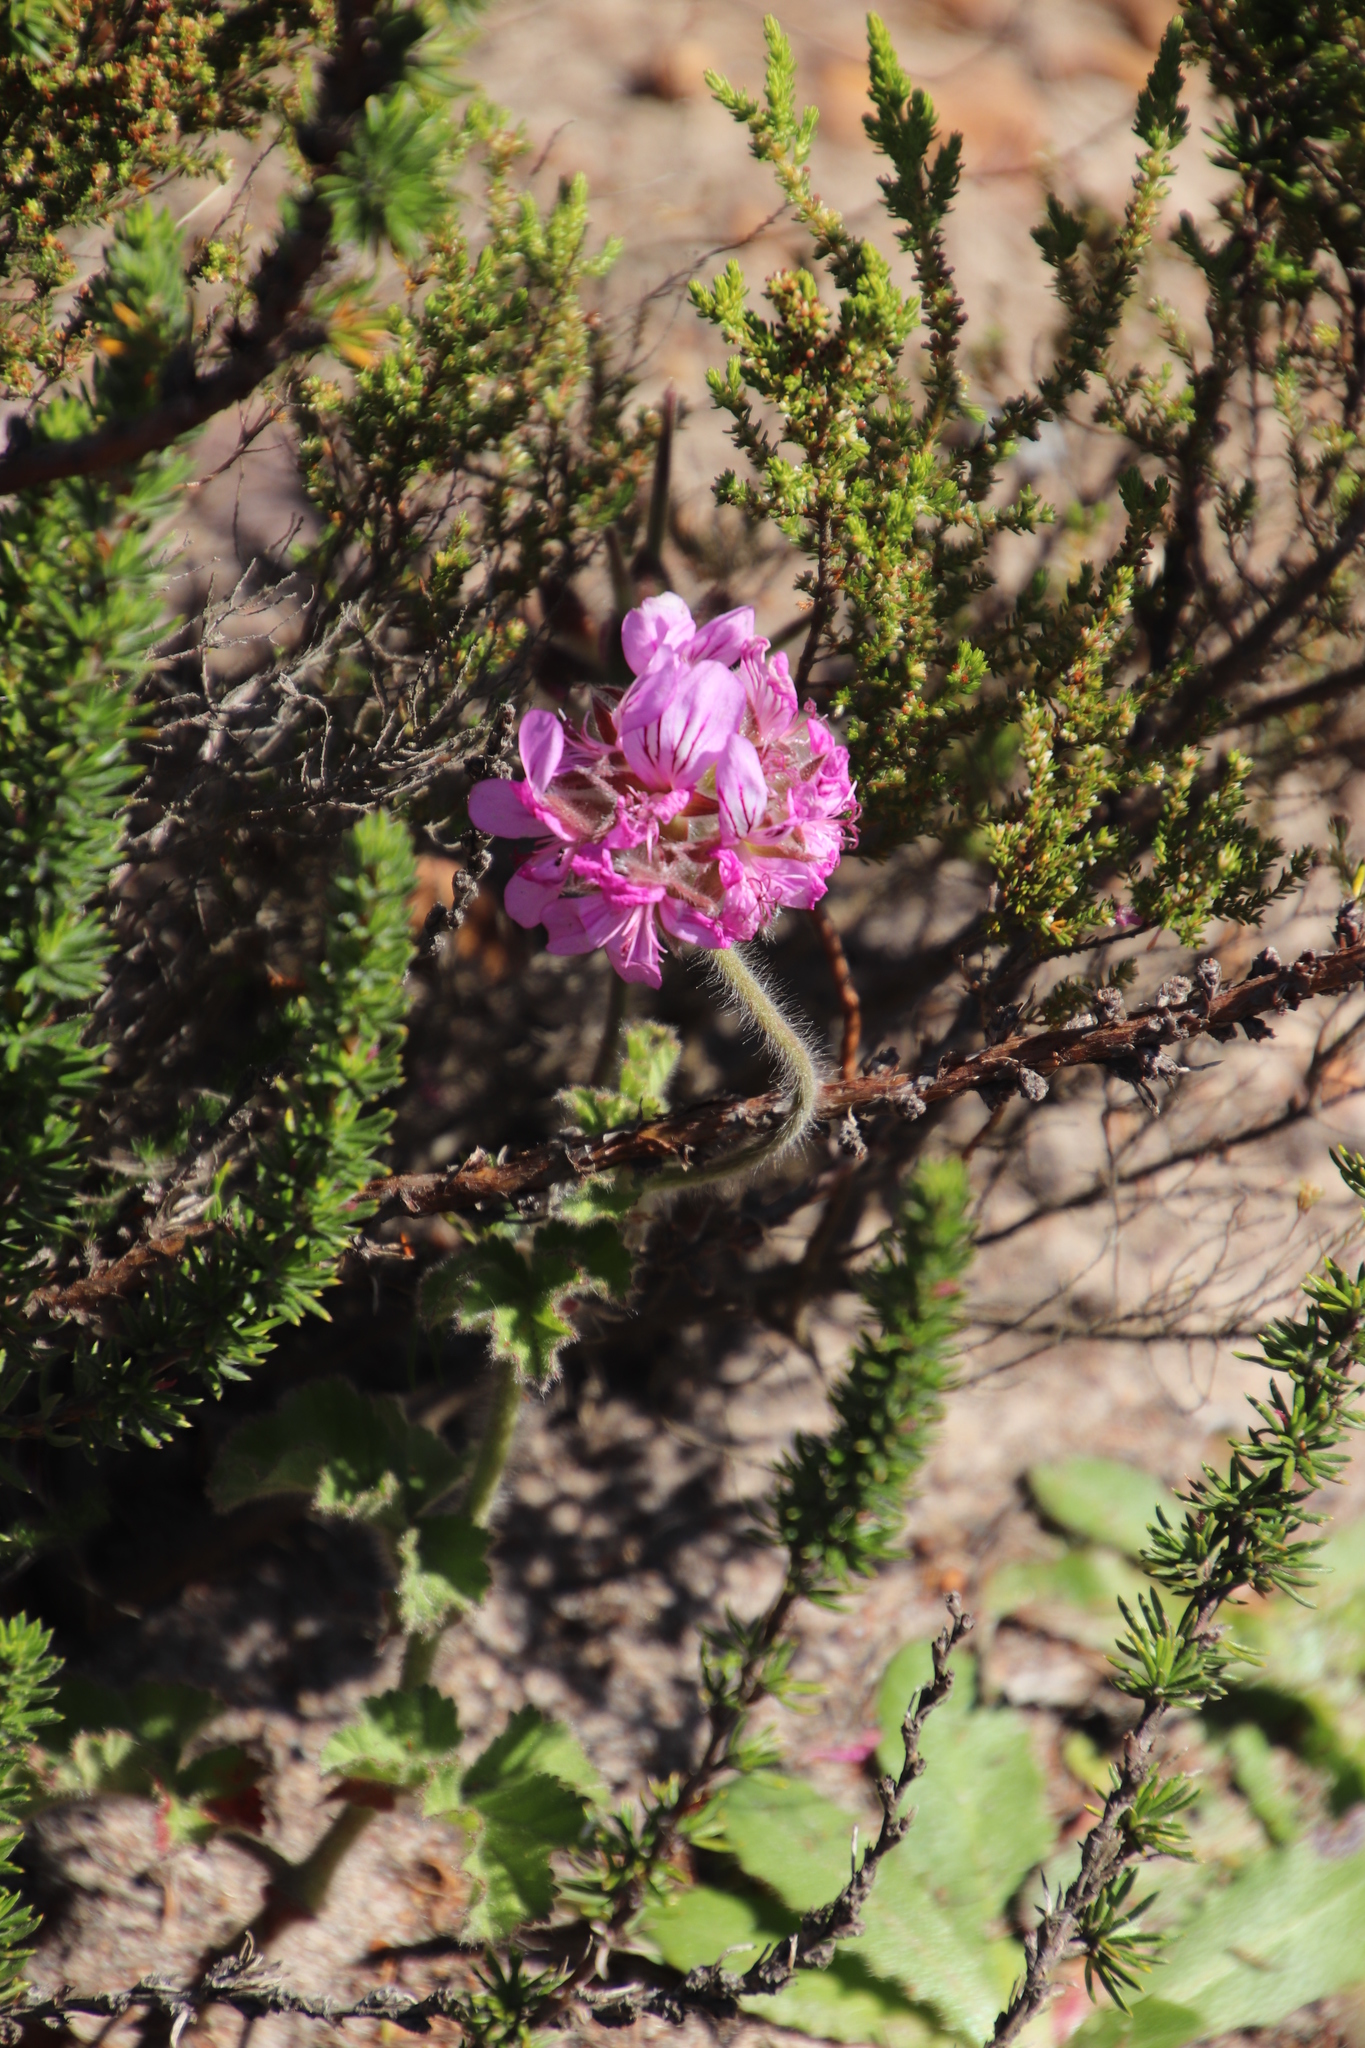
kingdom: Plantae
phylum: Tracheophyta
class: Magnoliopsida
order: Geraniales
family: Geraniaceae
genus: Pelargonium
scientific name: Pelargonium capitatum
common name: Rose scented geranium
